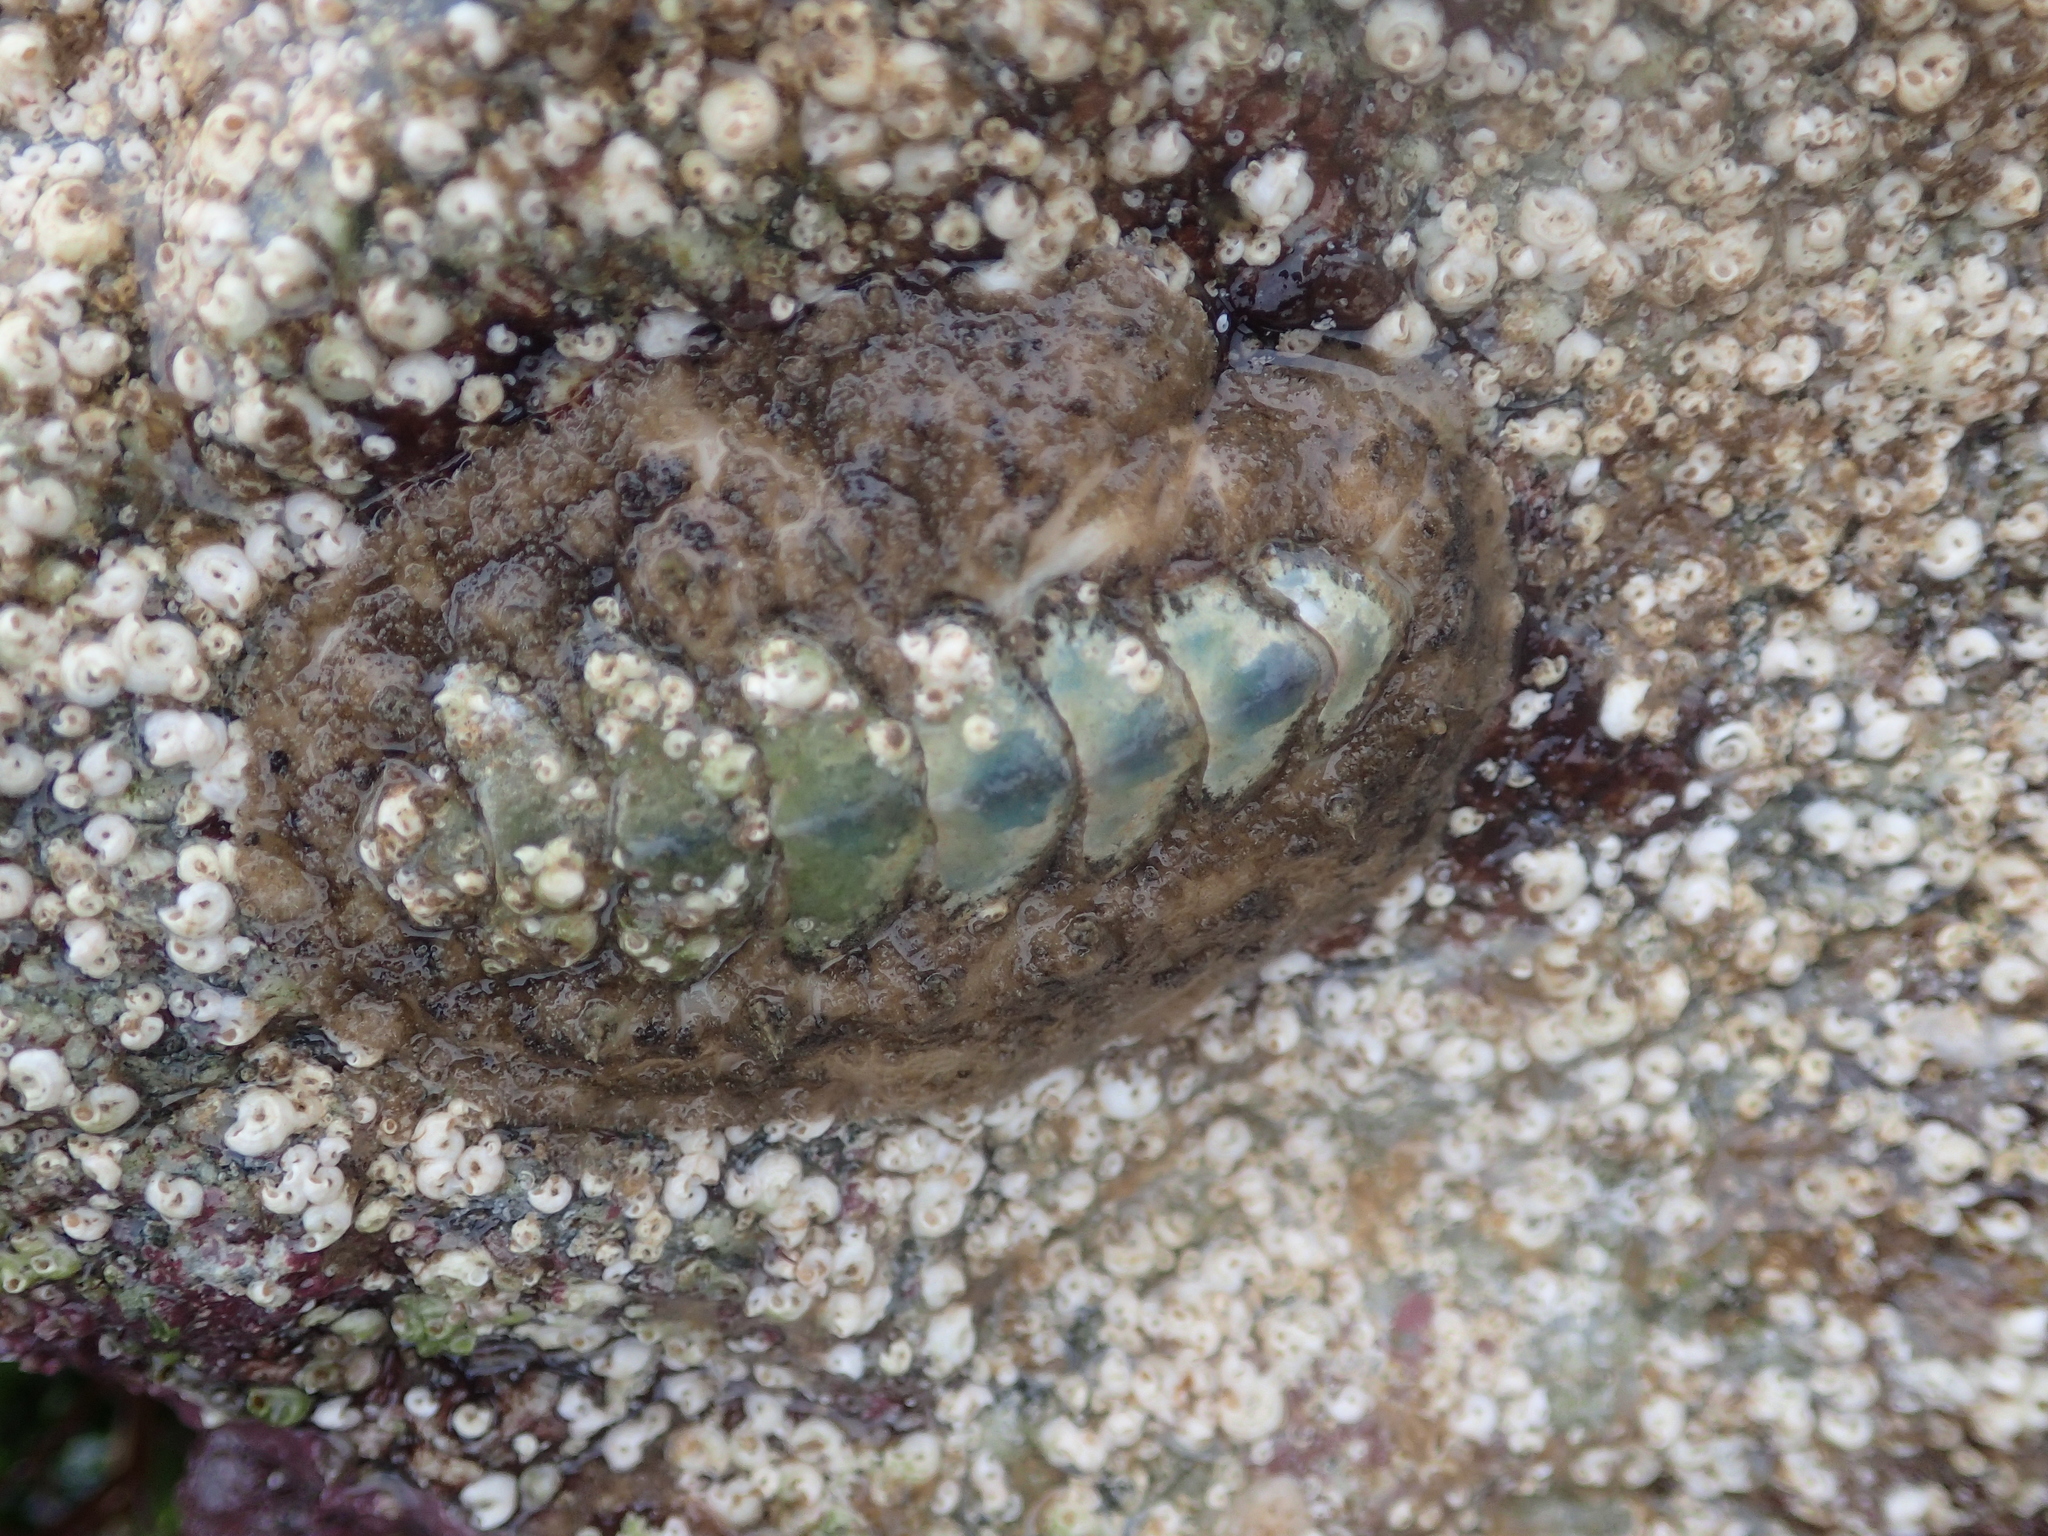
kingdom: Animalia
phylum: Mollusca
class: Polyplacophora
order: Chitonida
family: Acanthochitonidae
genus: Acanthochitona
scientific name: Acanthochitona fascicularis
